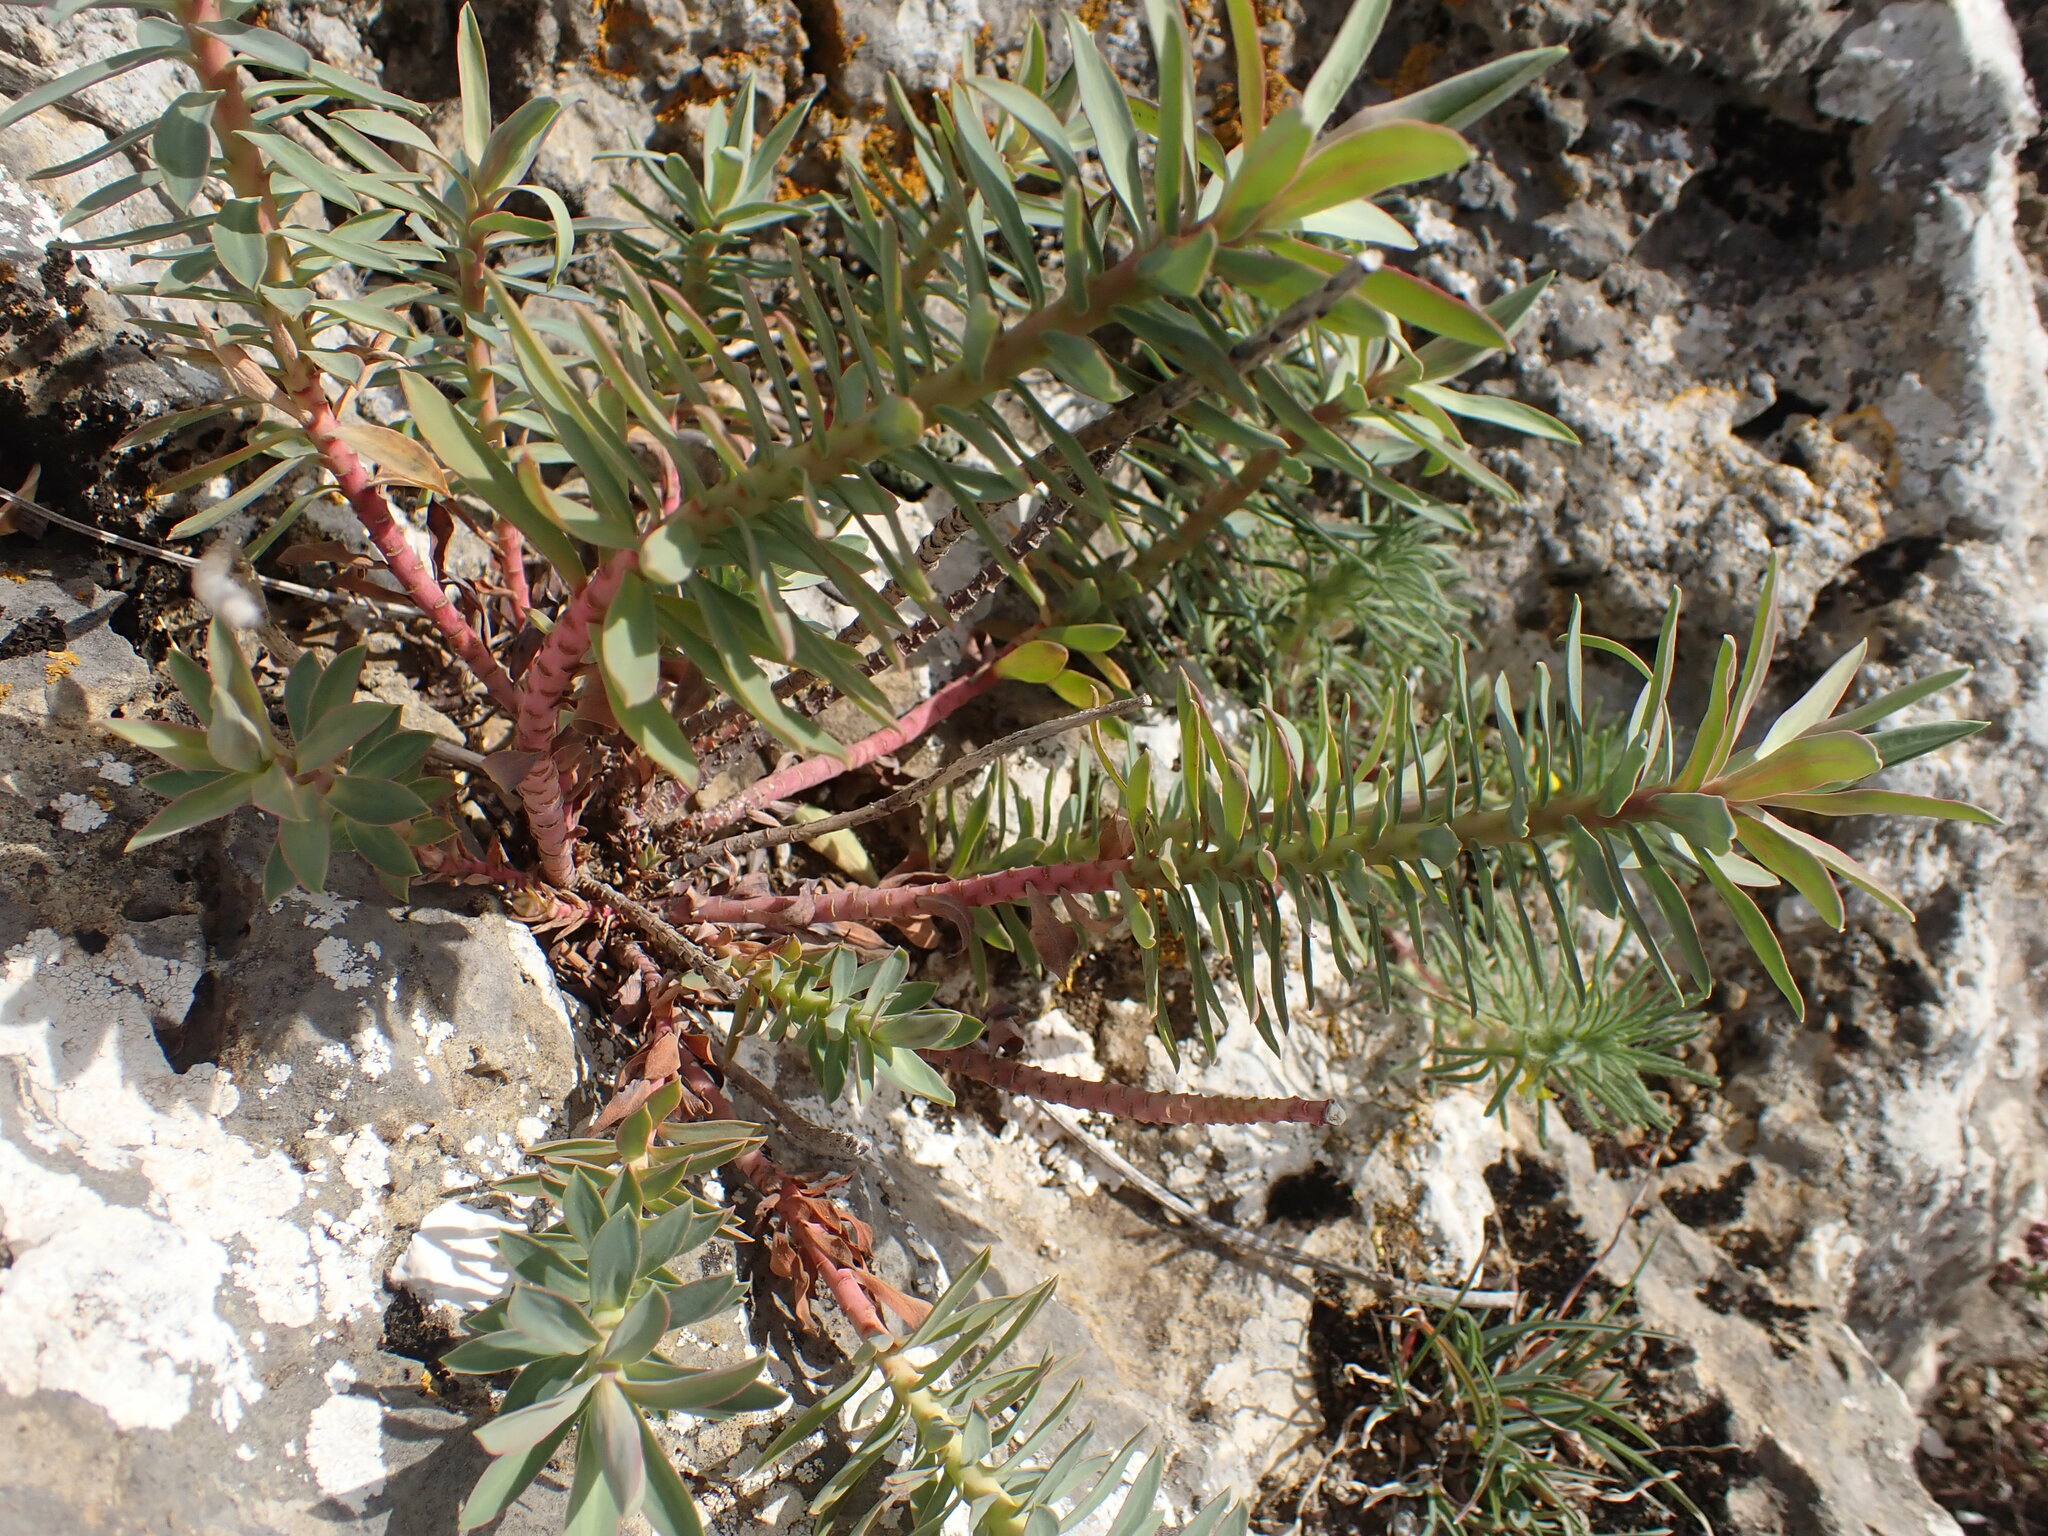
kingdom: Plantae
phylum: Tracheophyta
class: Magnoliopsida
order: Malpighiales
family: Euphorbiaceae
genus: Euphorbia
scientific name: Euphorbia nicaeensis
